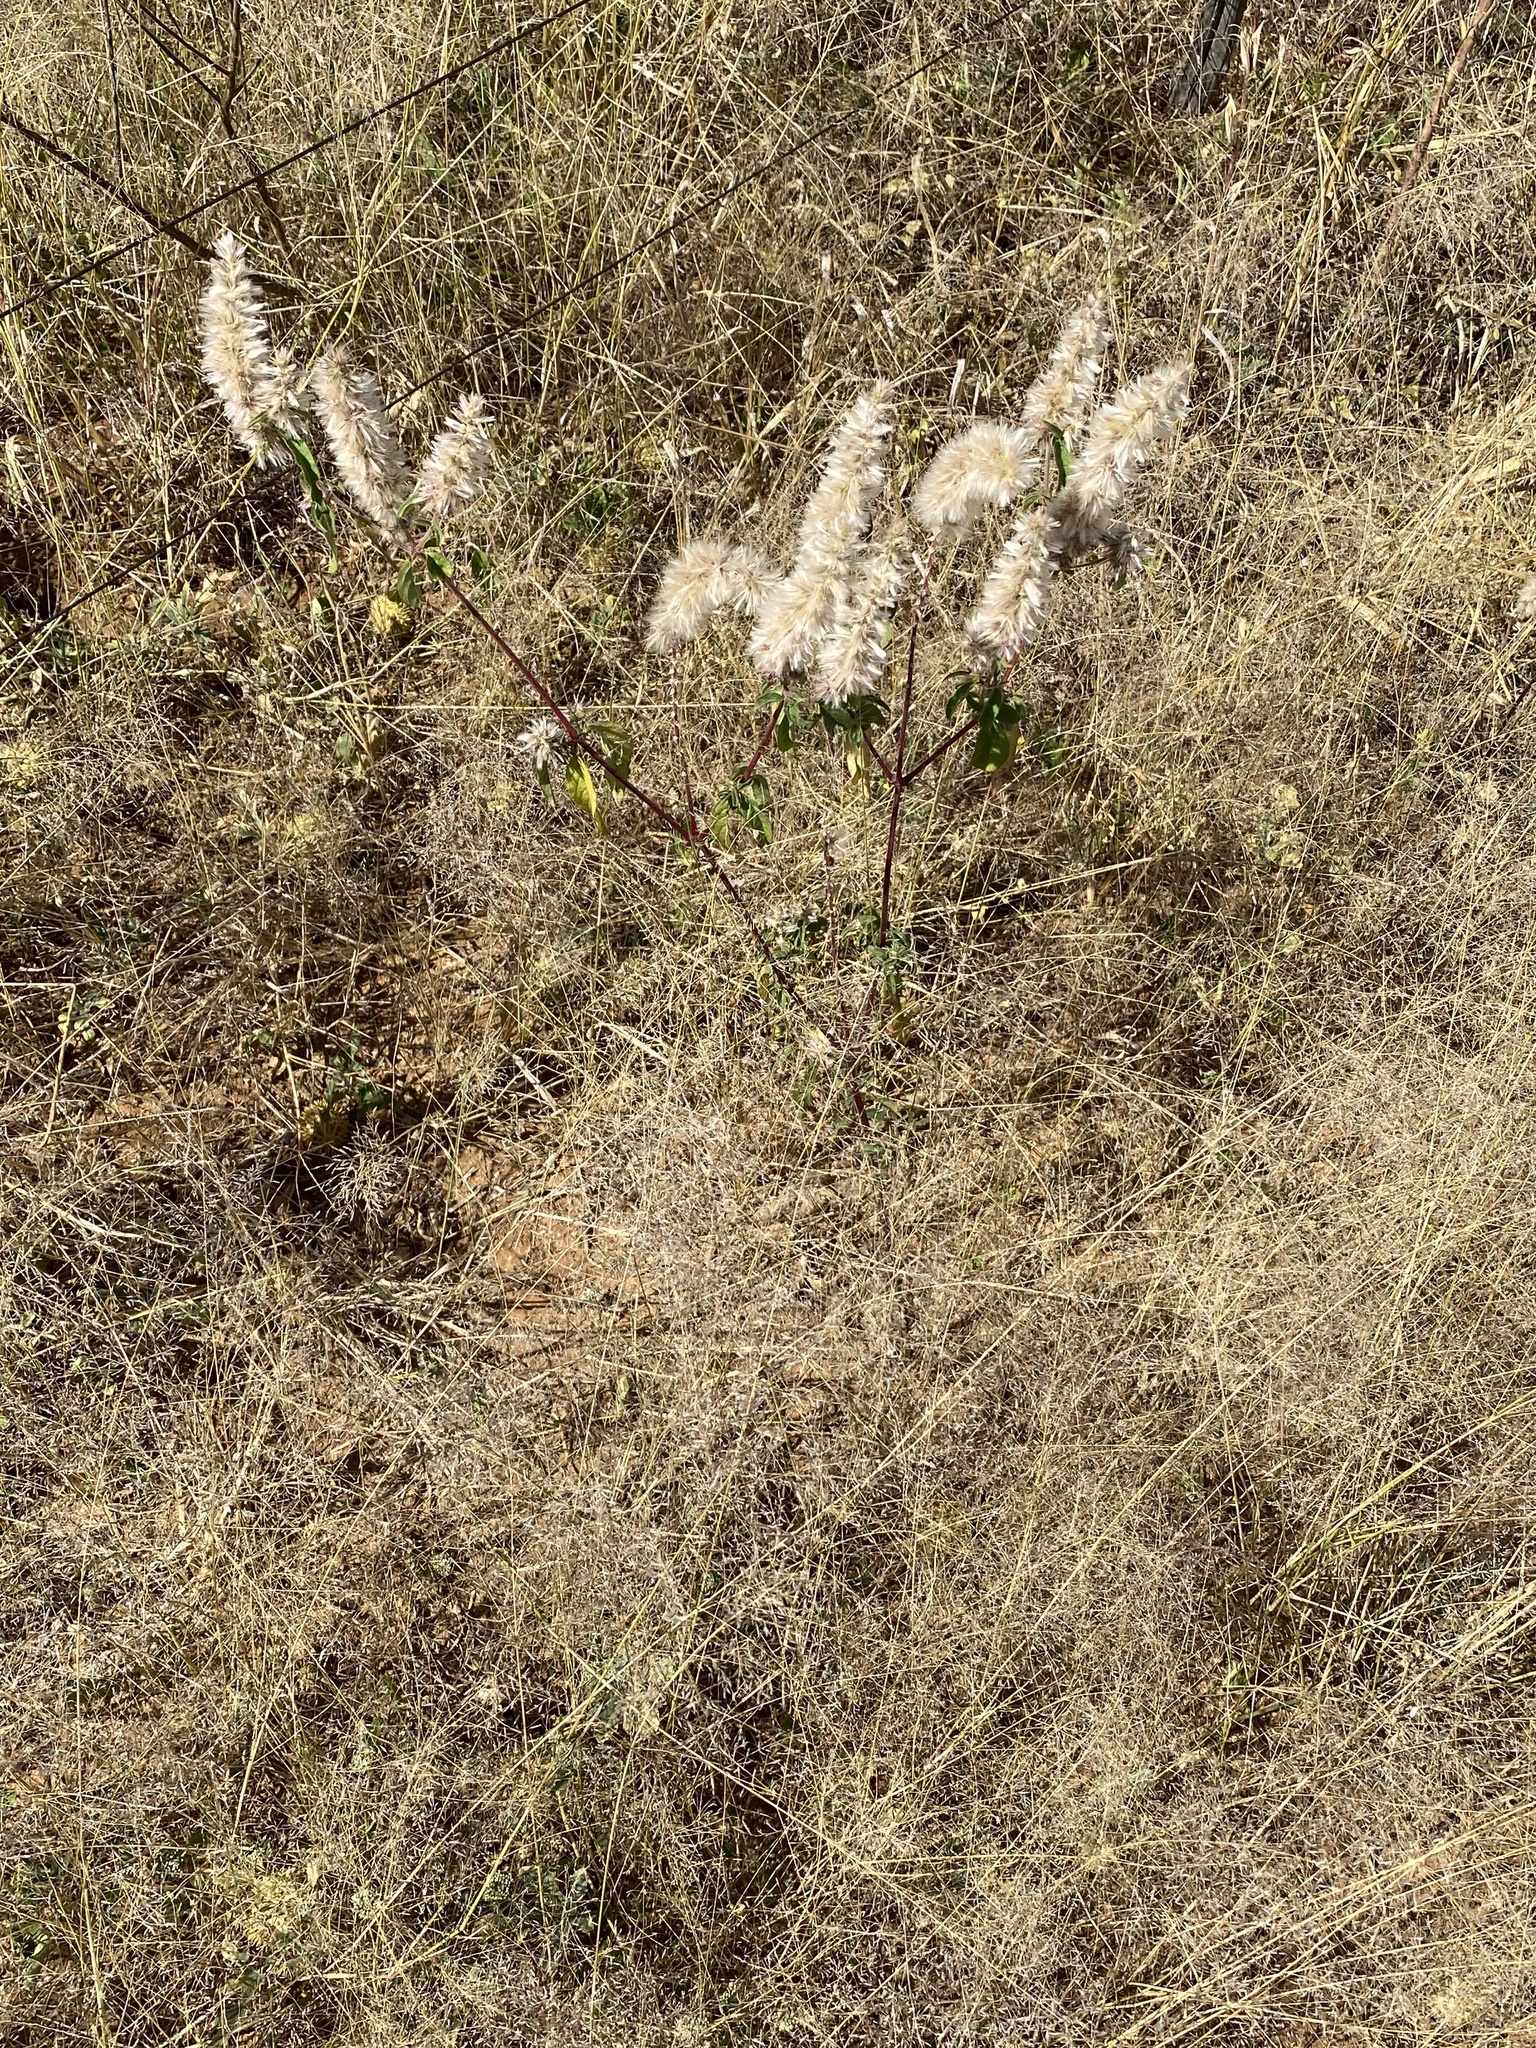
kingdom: Plantae
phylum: Tracheophyta
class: Magnoliopsida
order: Caryophyllales
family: Amaranthaceae
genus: Nelsia
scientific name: Nelsia quadrangula
